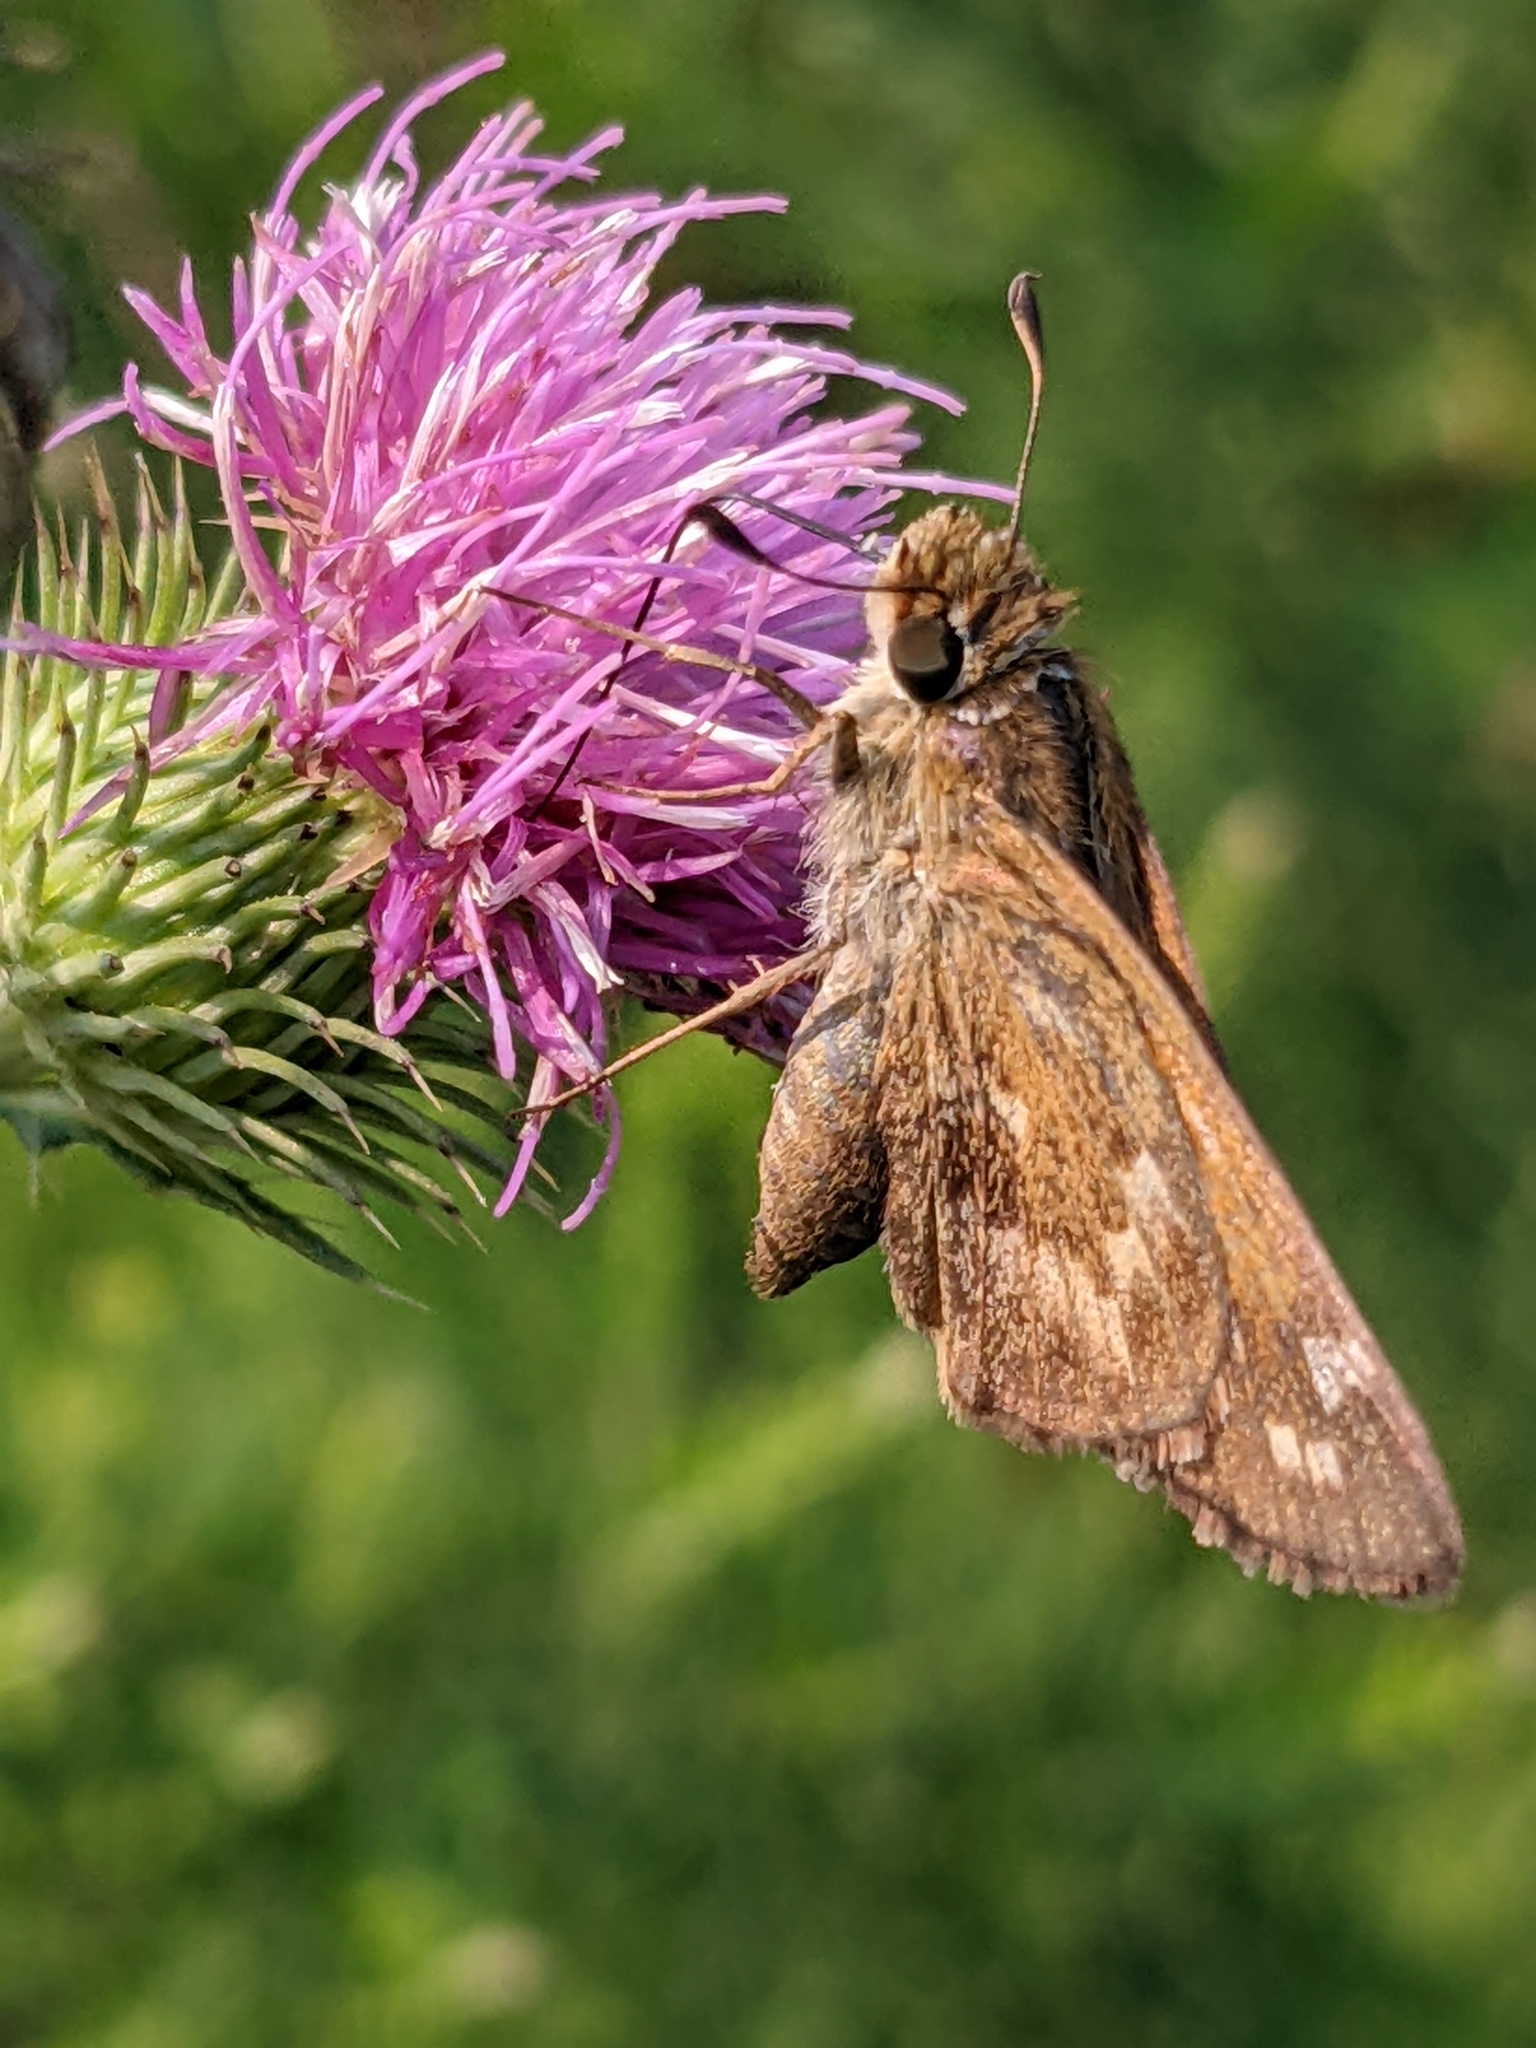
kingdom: Animalia
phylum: Arthropoda
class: Insecta
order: Lepidoptera
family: Hesperiidae
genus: Atalopedes
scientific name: Atalopedes
